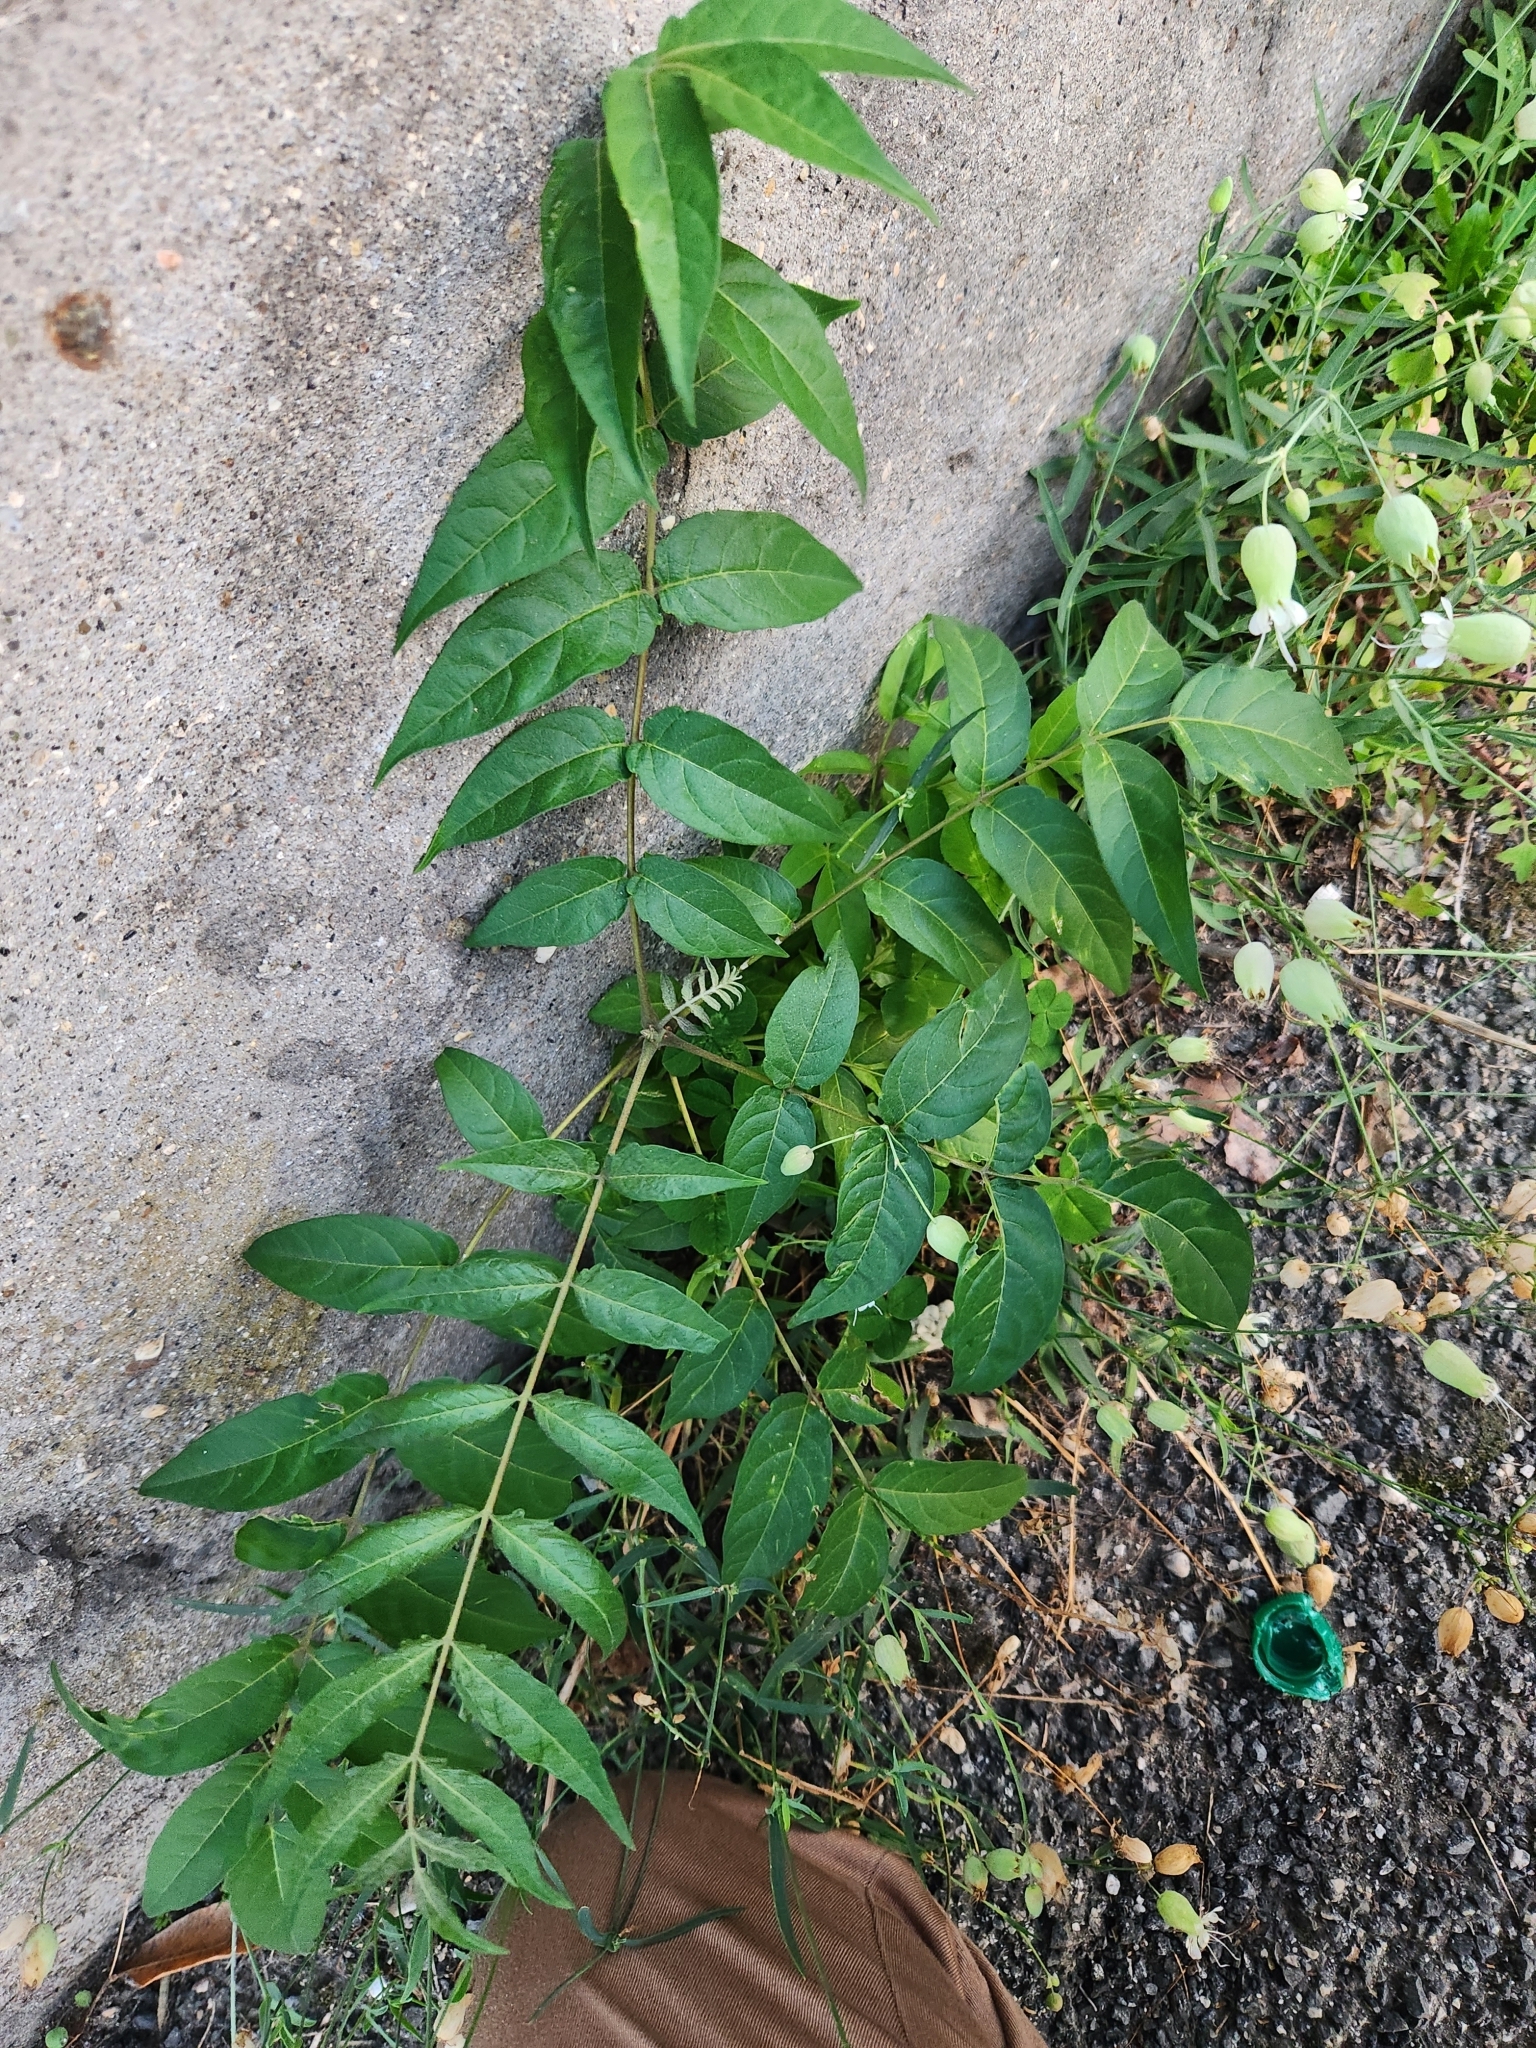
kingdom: Plantae
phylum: Tracheophyta
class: Magnoliopsida
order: Sapindales
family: Simaroubaceae
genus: Ailanthus
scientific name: Ailanthus altissima
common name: Tree-of-heaven
